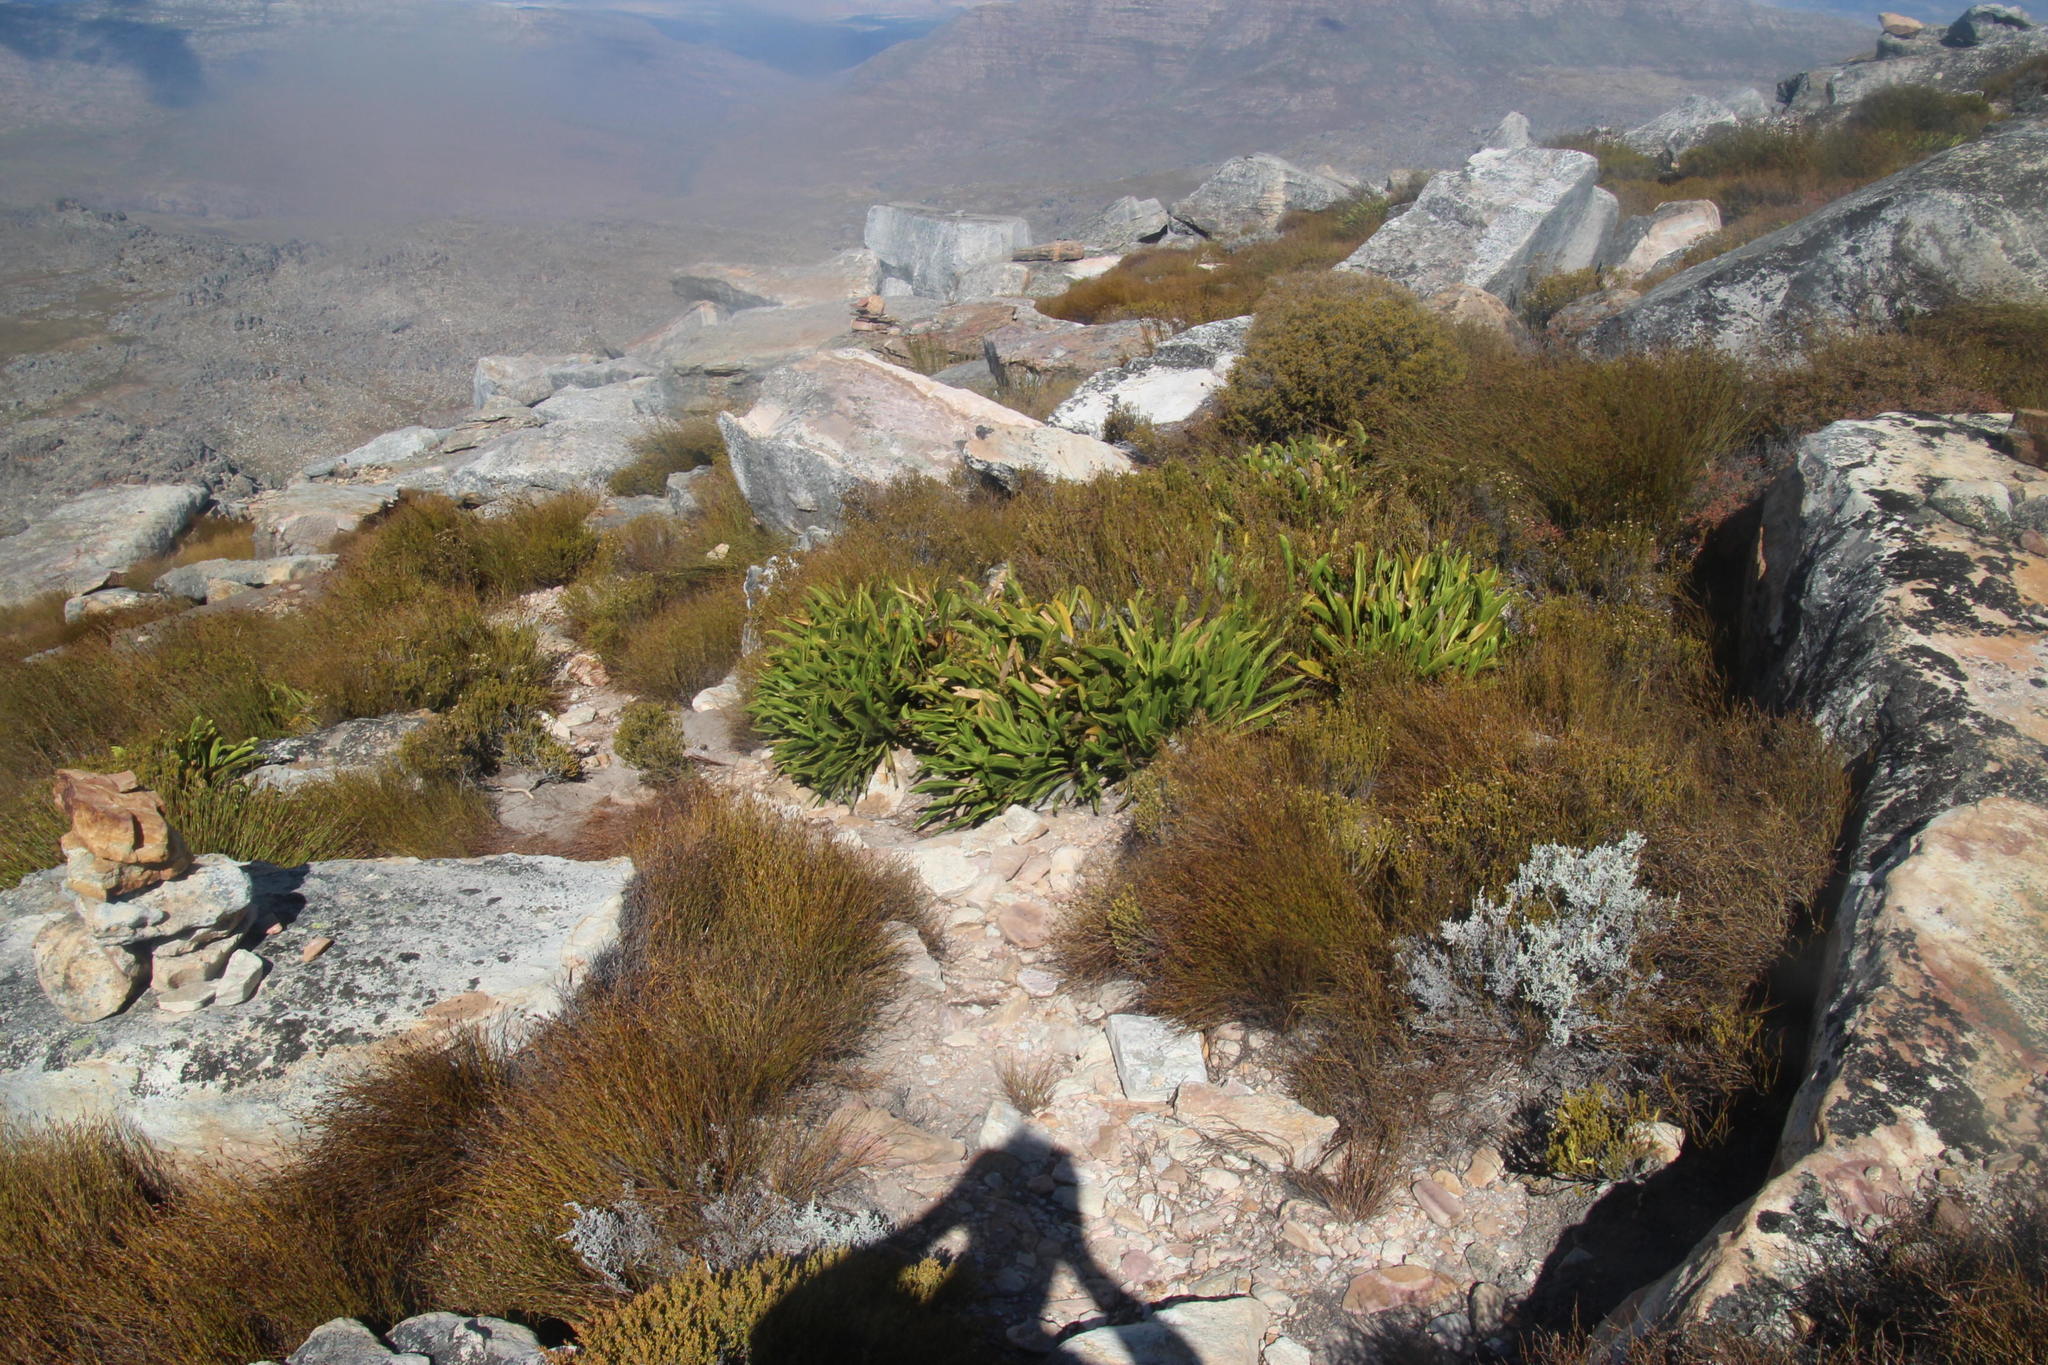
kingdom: Plantae
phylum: Tracheophyta
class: Magnoliopsida
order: Proteales
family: Proteaceae
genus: Protea
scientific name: Protea cryophila
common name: Snow protea
